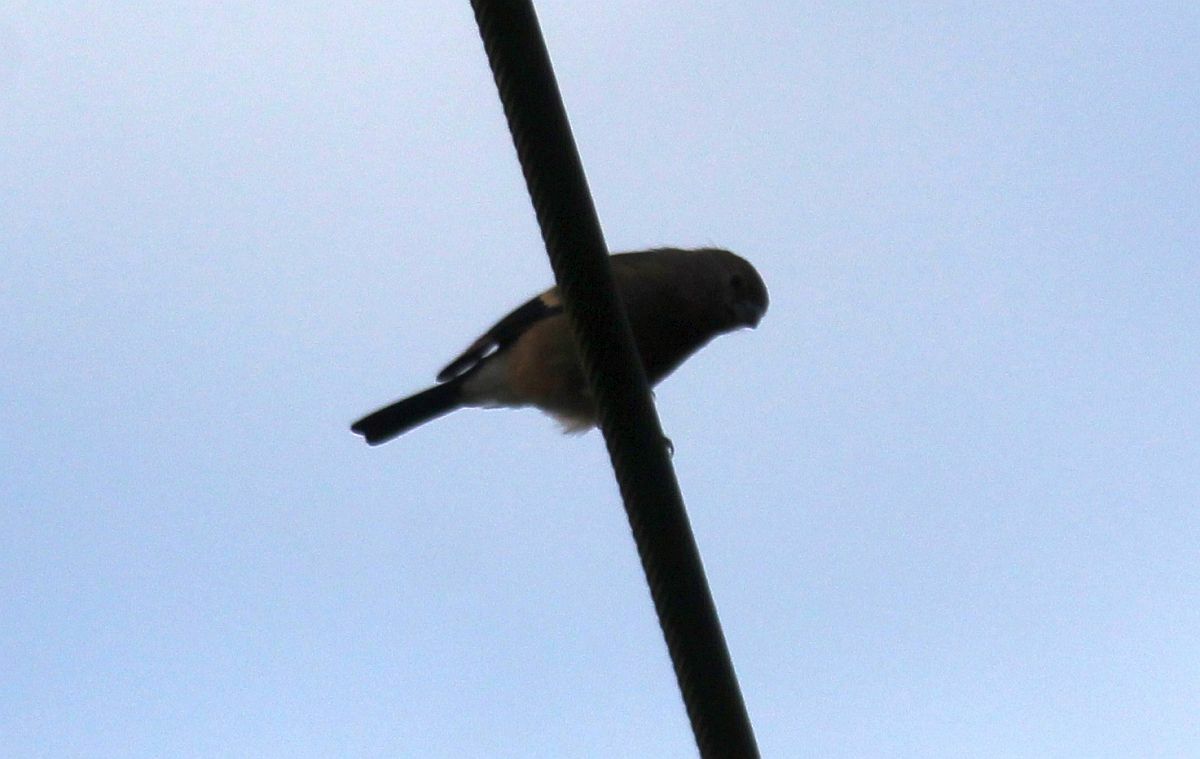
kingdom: Animalia
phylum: Chordata
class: Aves
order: Passeriformes
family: Fringillidae
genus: Pyrrhula
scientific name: Pyrrhula pyrrhula
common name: Eurasian bullfinch
